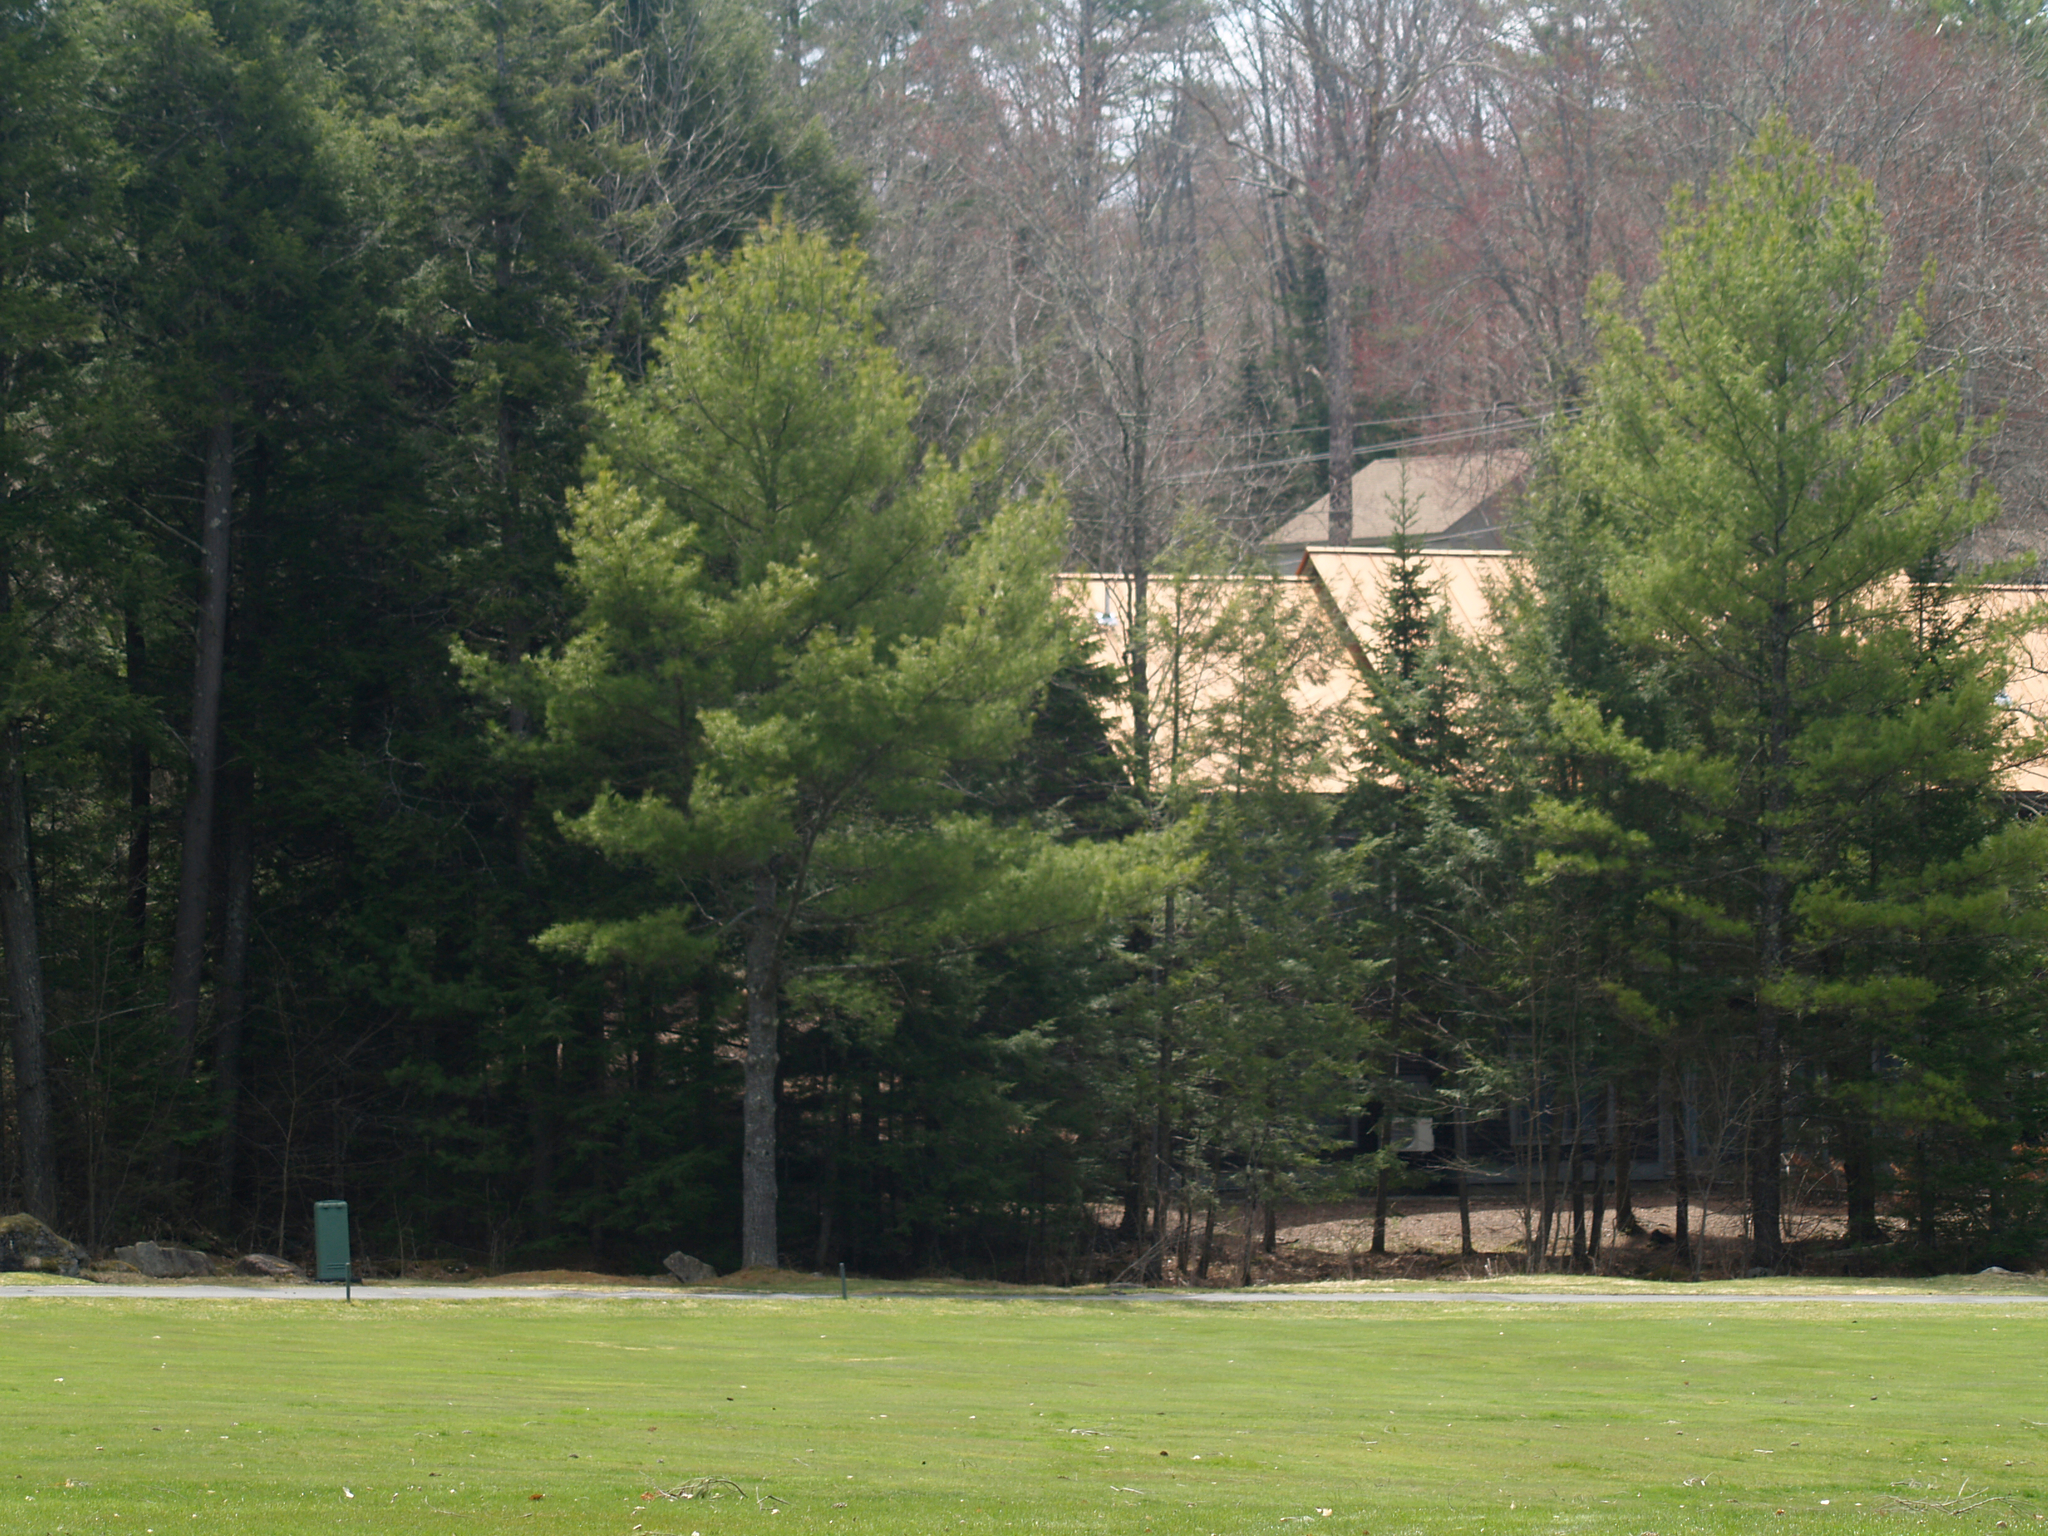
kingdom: Plantae
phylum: Tracheophyta
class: Pinopsida
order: Pinales
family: Pinaceae
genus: Pinus
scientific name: Pinus strobus
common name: Weymouth pine
